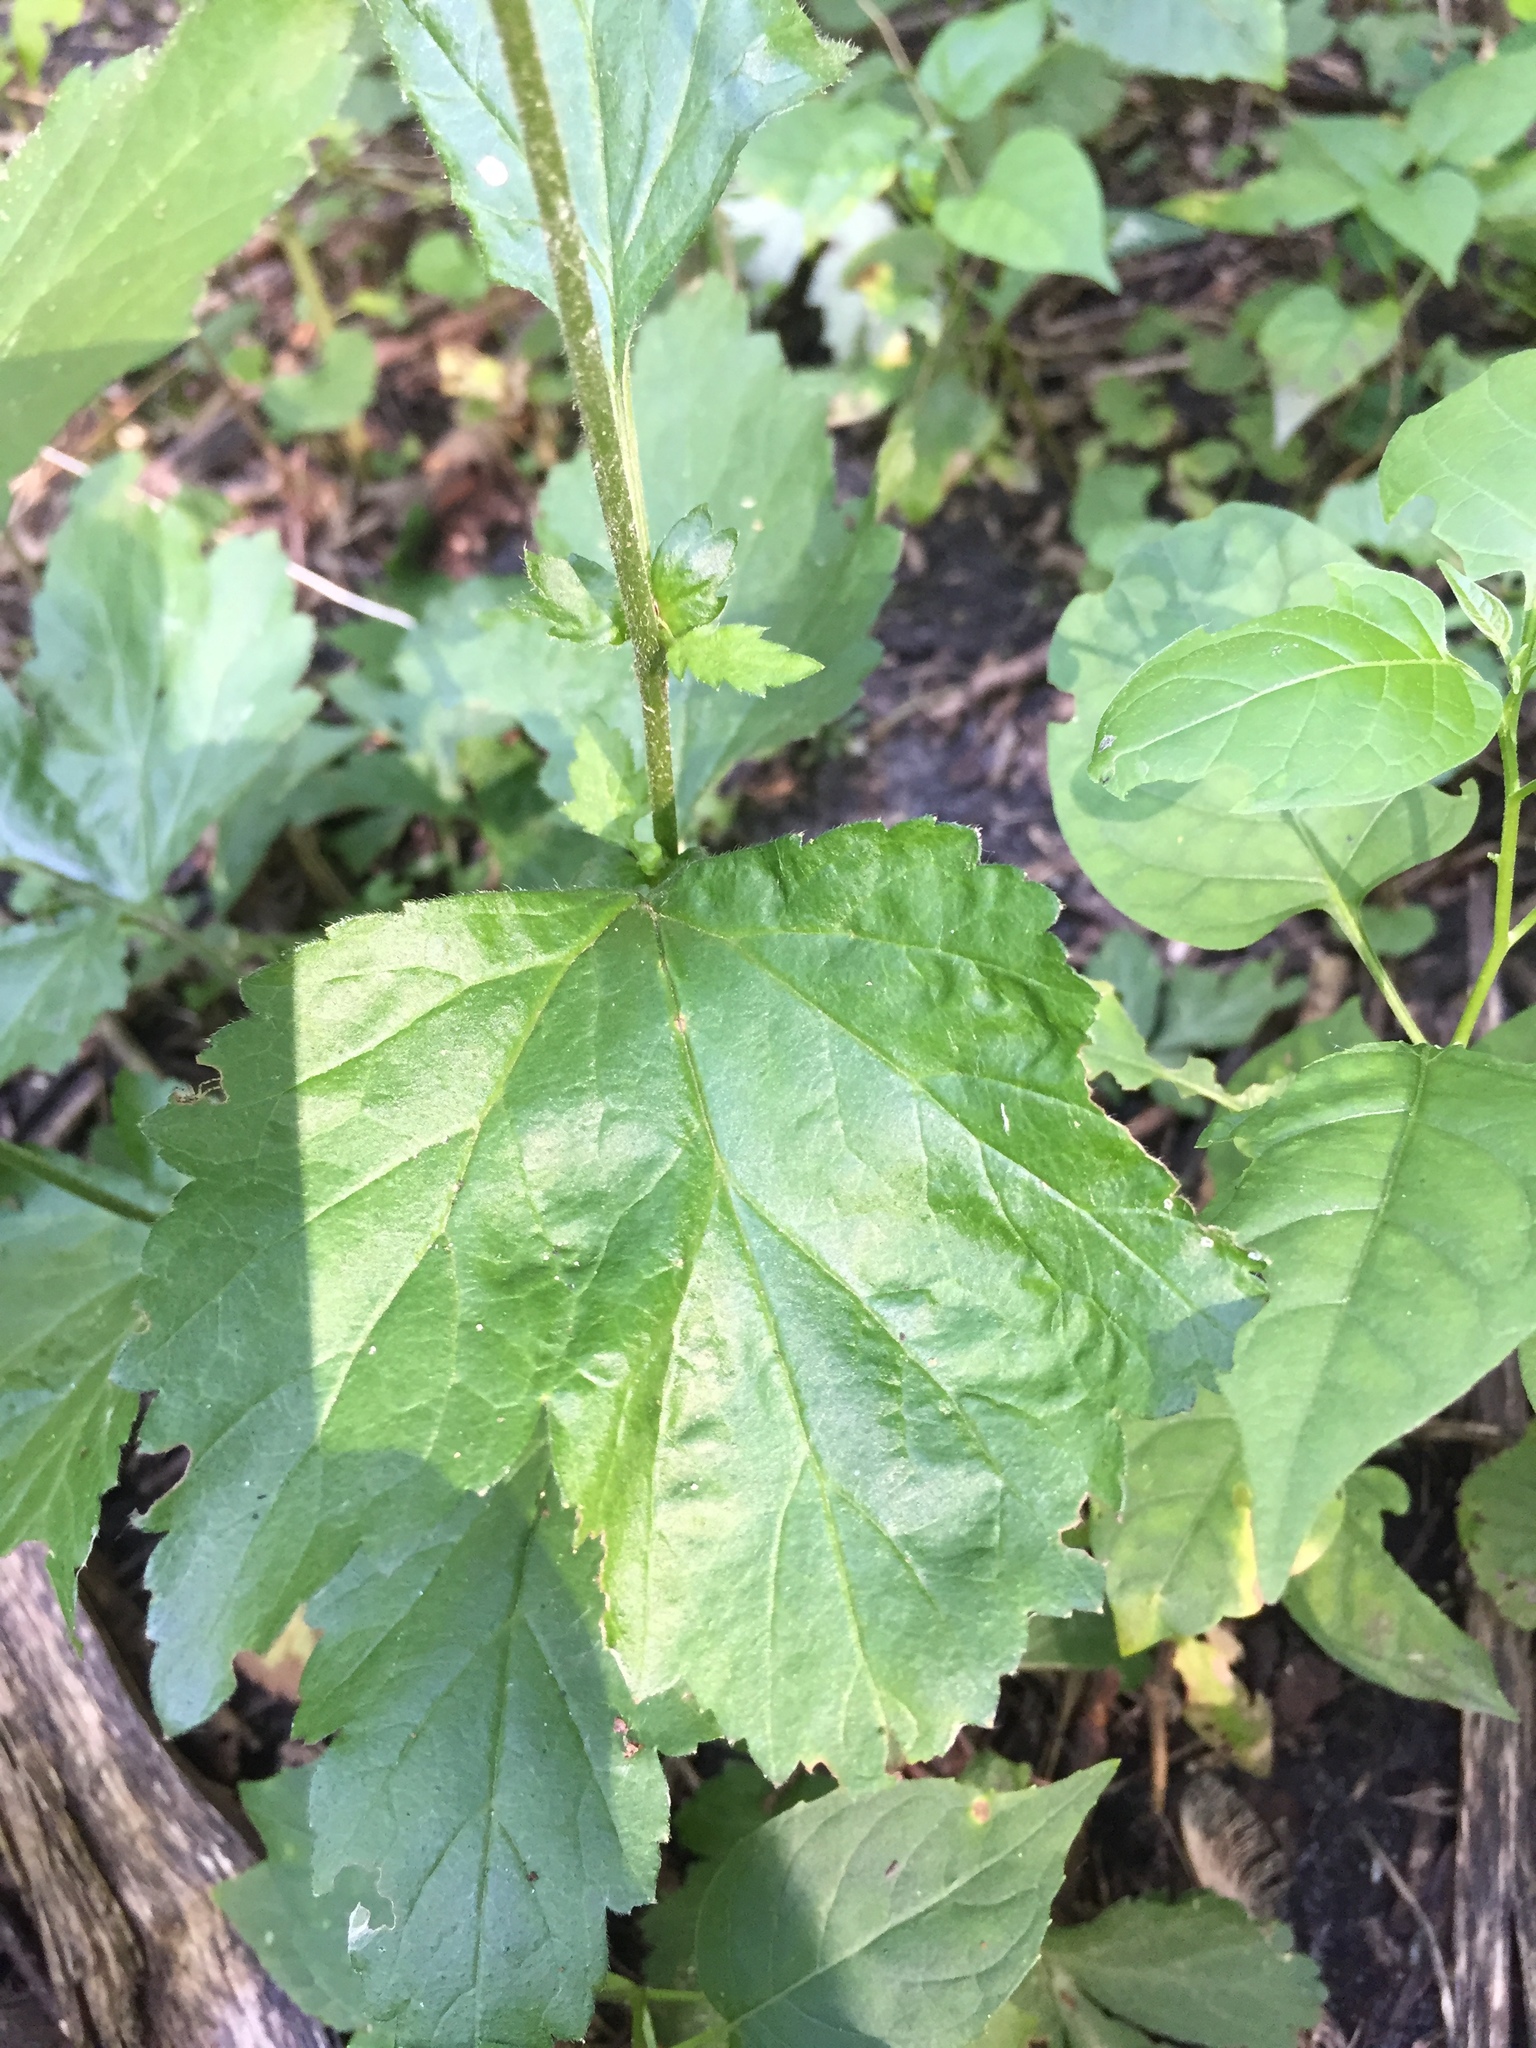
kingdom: Plantae
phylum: Tracheophyta
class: Magnoliopsida
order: Rosales
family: Rosaceae
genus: Geum
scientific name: Geum canadense
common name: White avens
